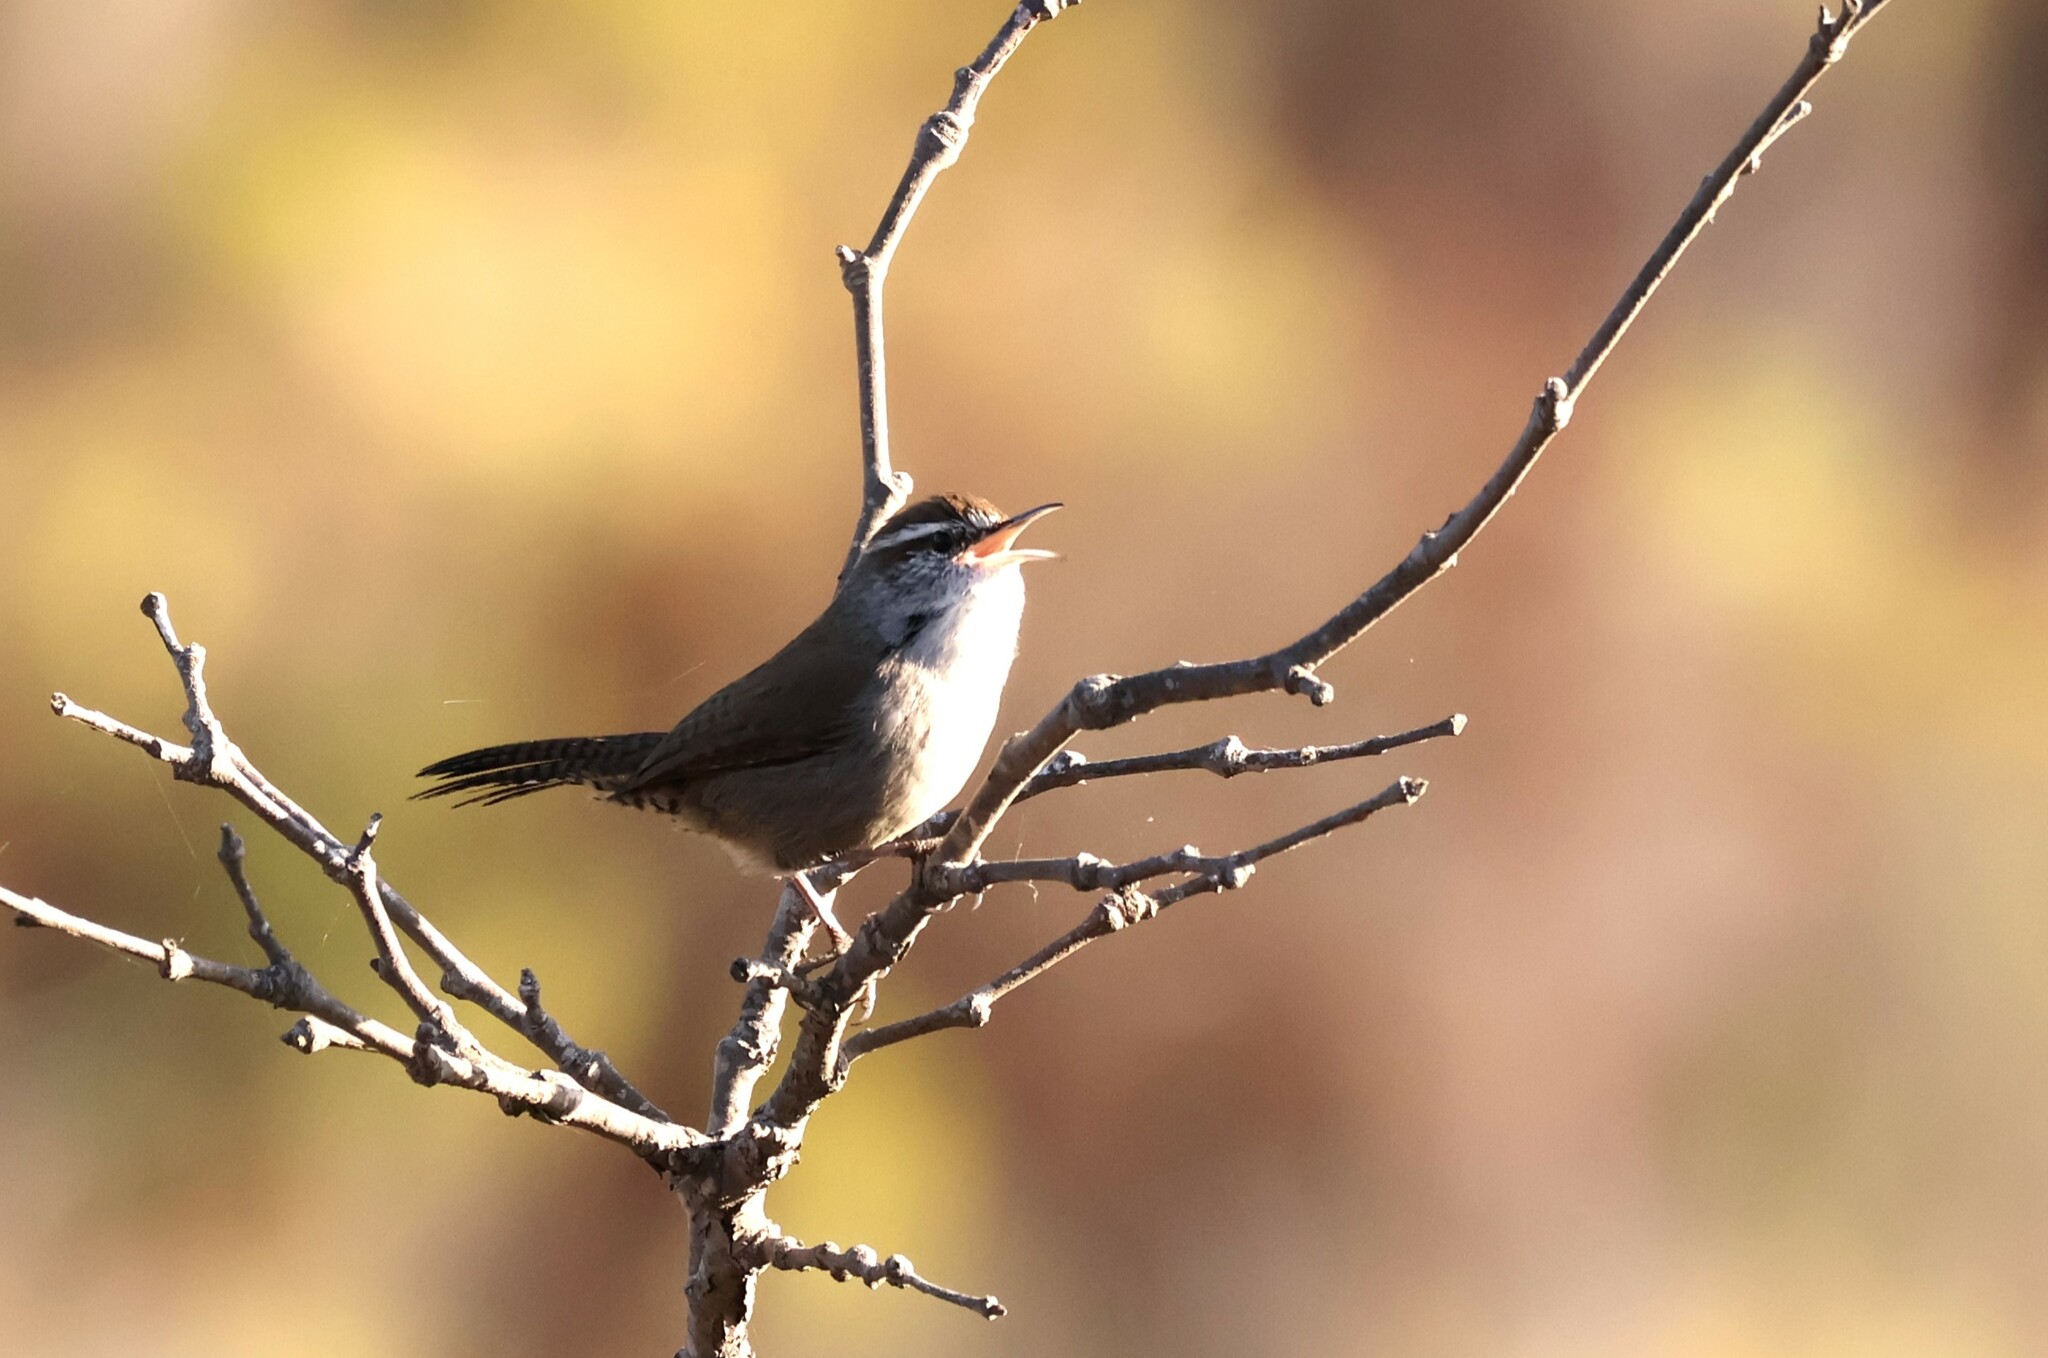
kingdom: Animalia
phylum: Chordata
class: Aves
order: Passeriformes
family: Troglodytidae
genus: Thryomanes
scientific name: Thryomanes bewickii
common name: Bewick's wren
